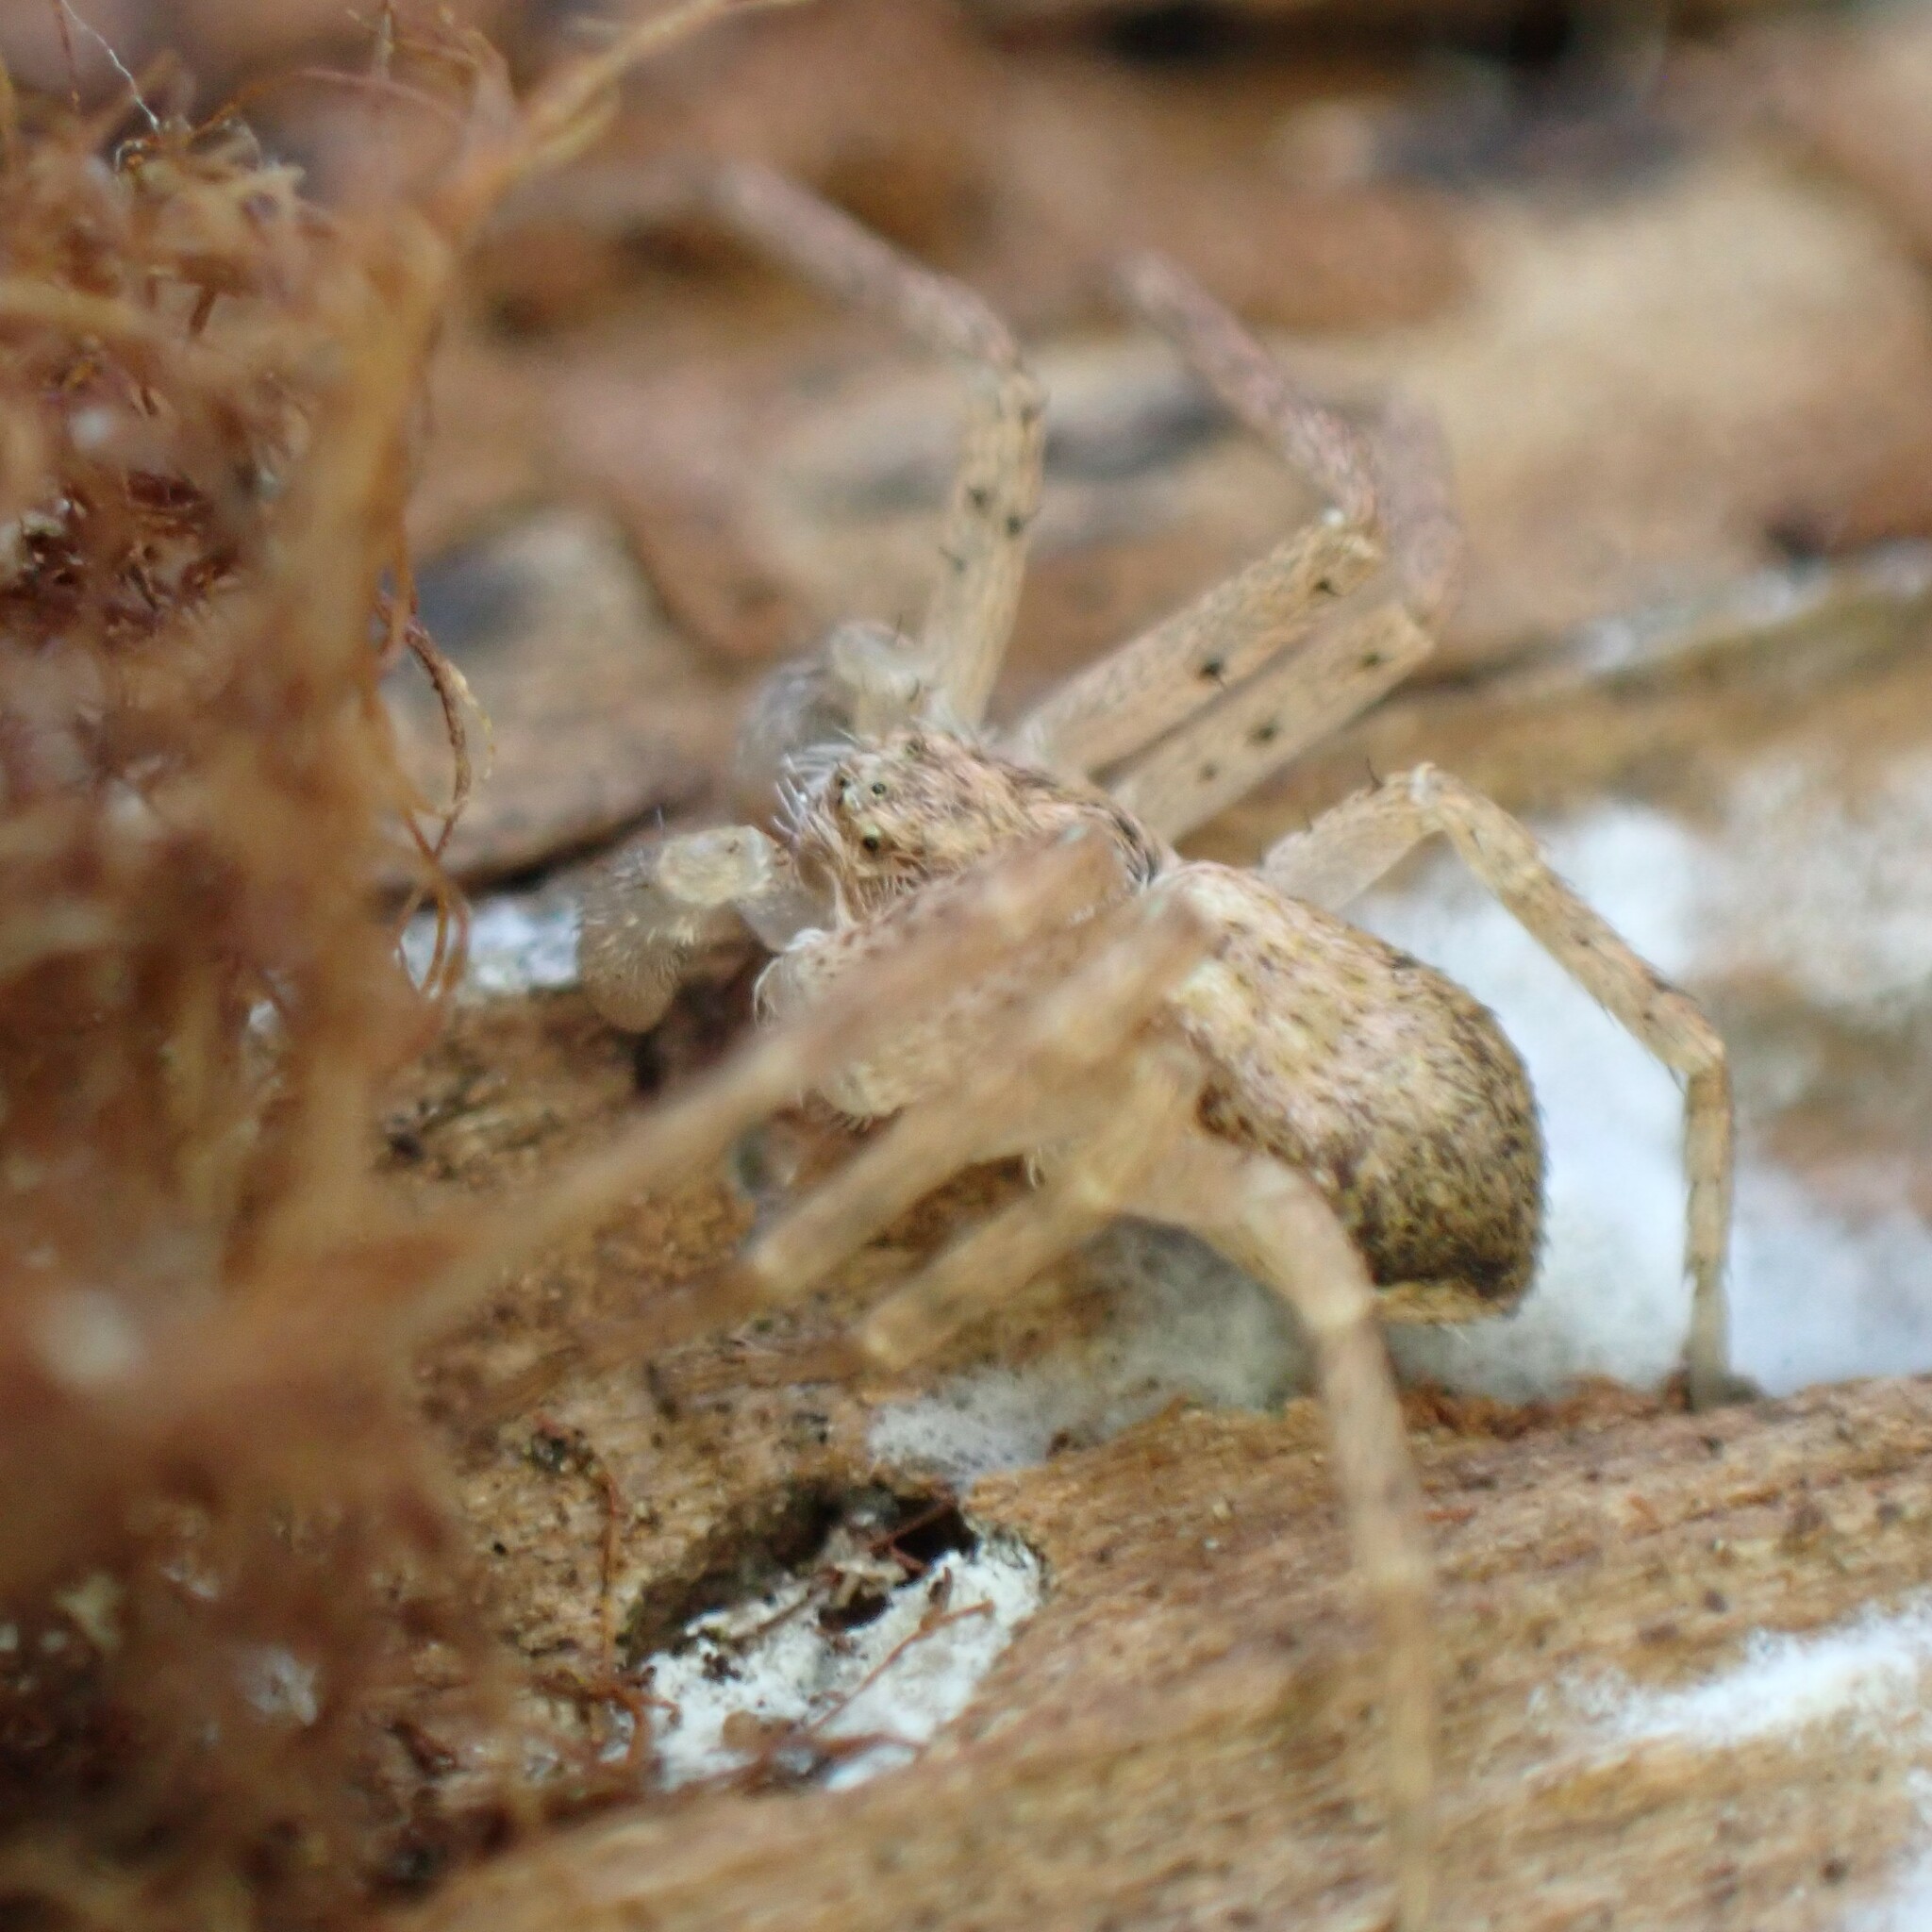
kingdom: Animalia
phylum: Arthropoda
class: Arachnida
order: Araneae
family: Philodromidae
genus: Philodromus
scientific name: Philodromus dispar
